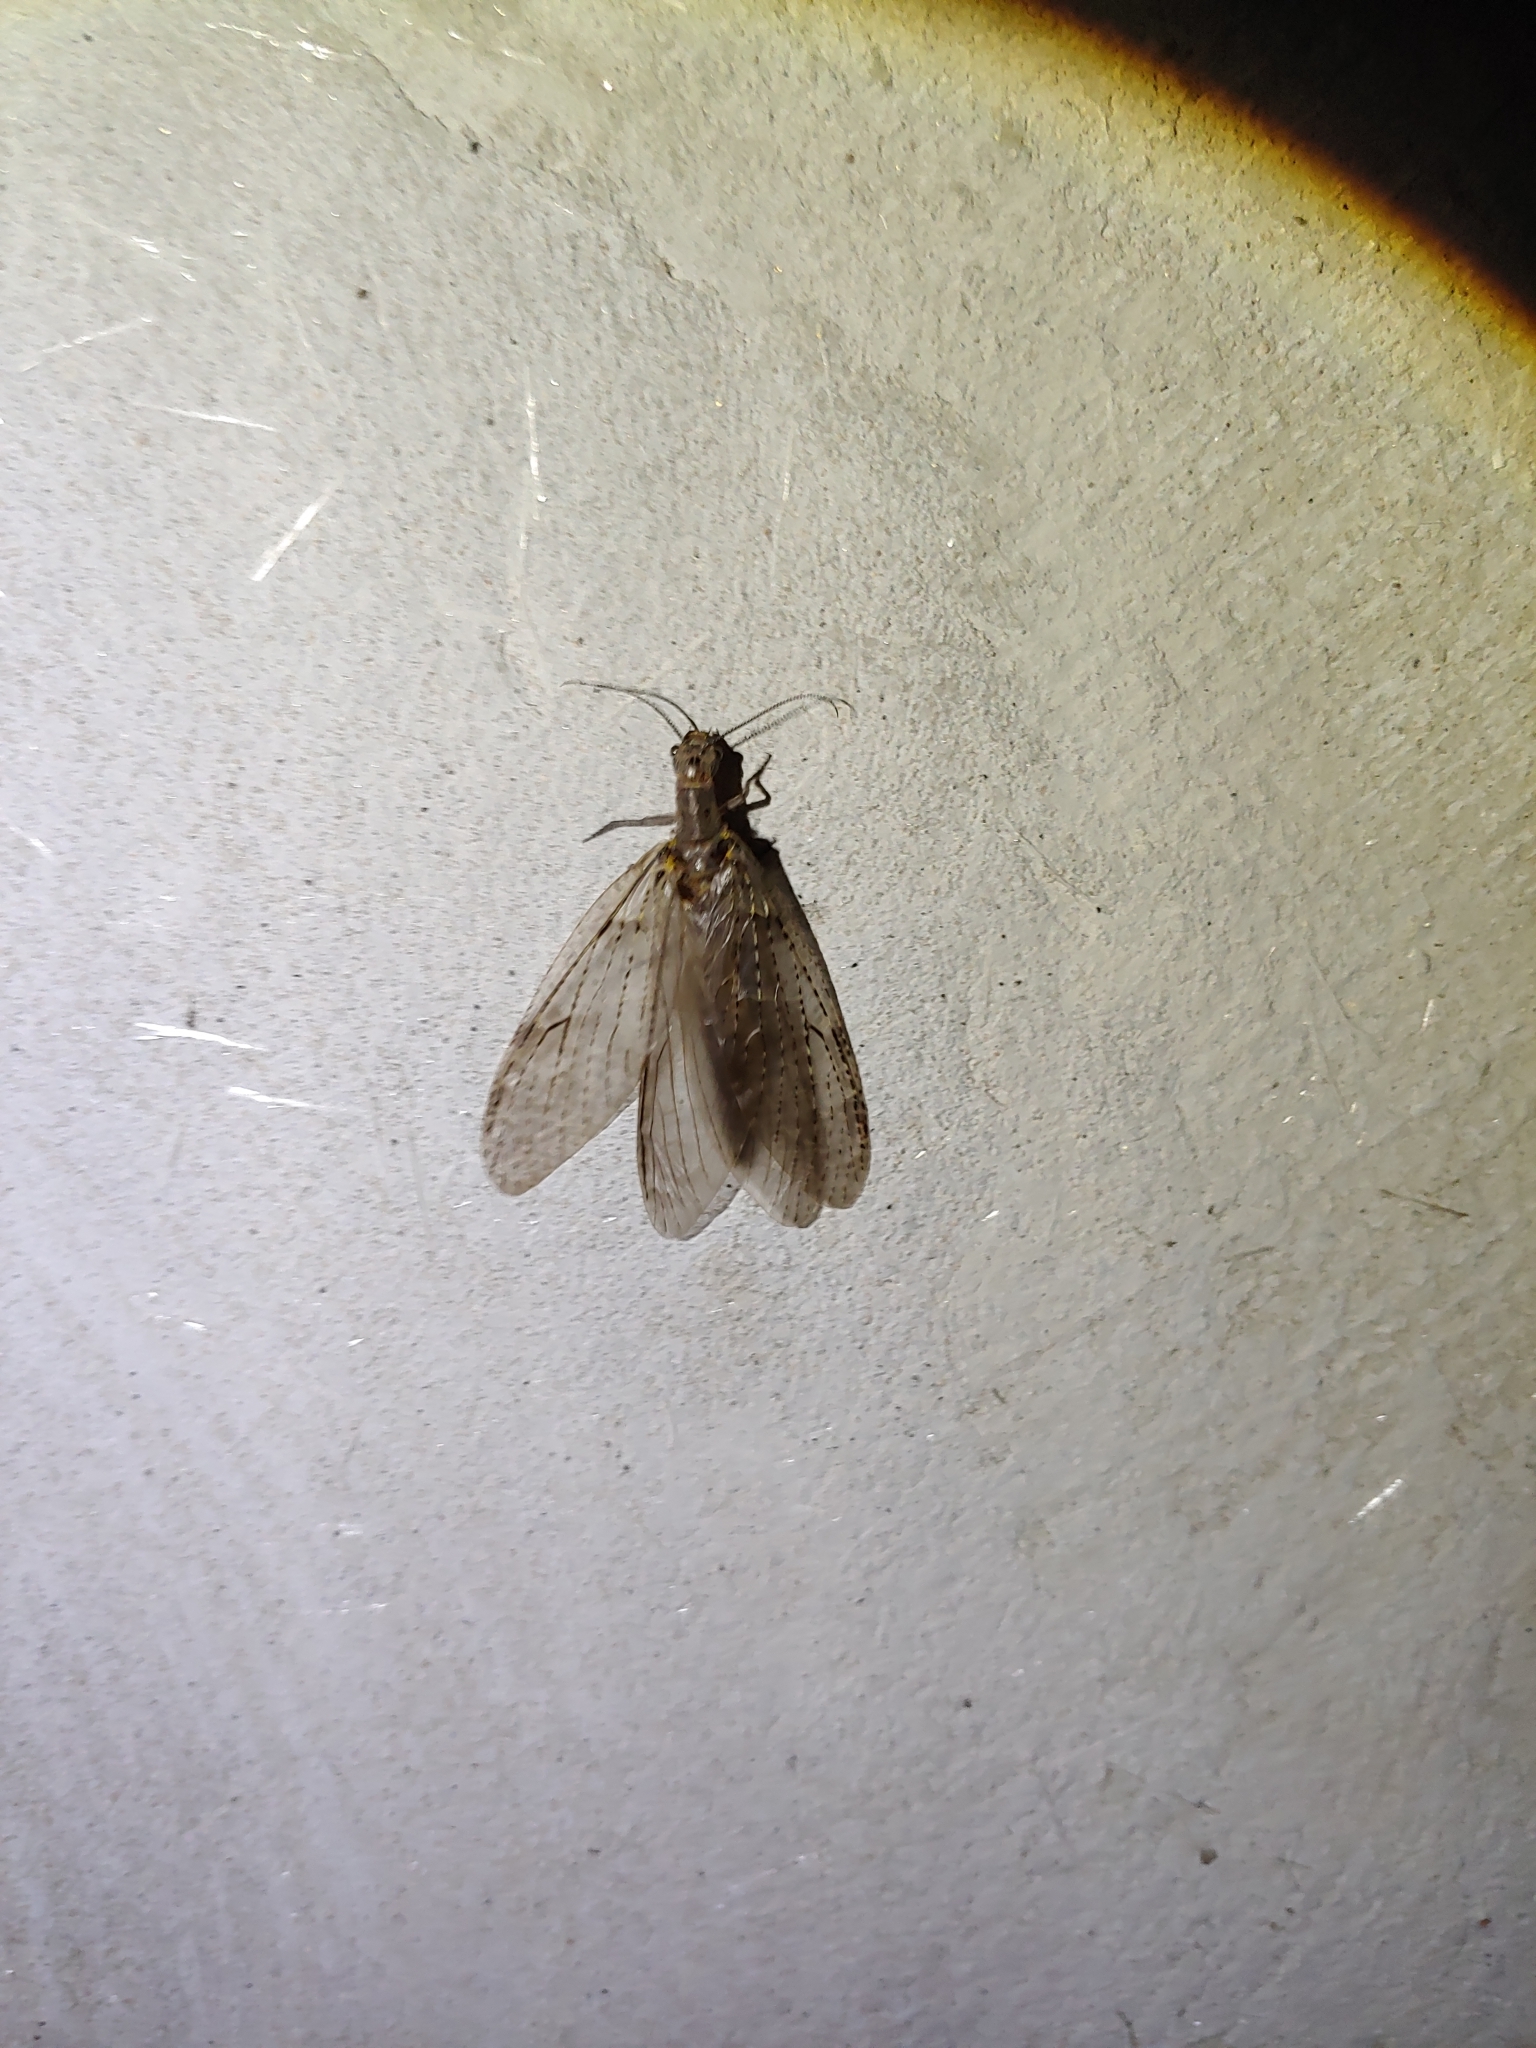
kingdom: Animalia
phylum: Arthropoda
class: Insecta
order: Megaloptera
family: Corydalidae
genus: Chauliodes
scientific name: Chauliodes rastricornis
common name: Spring fishfly
